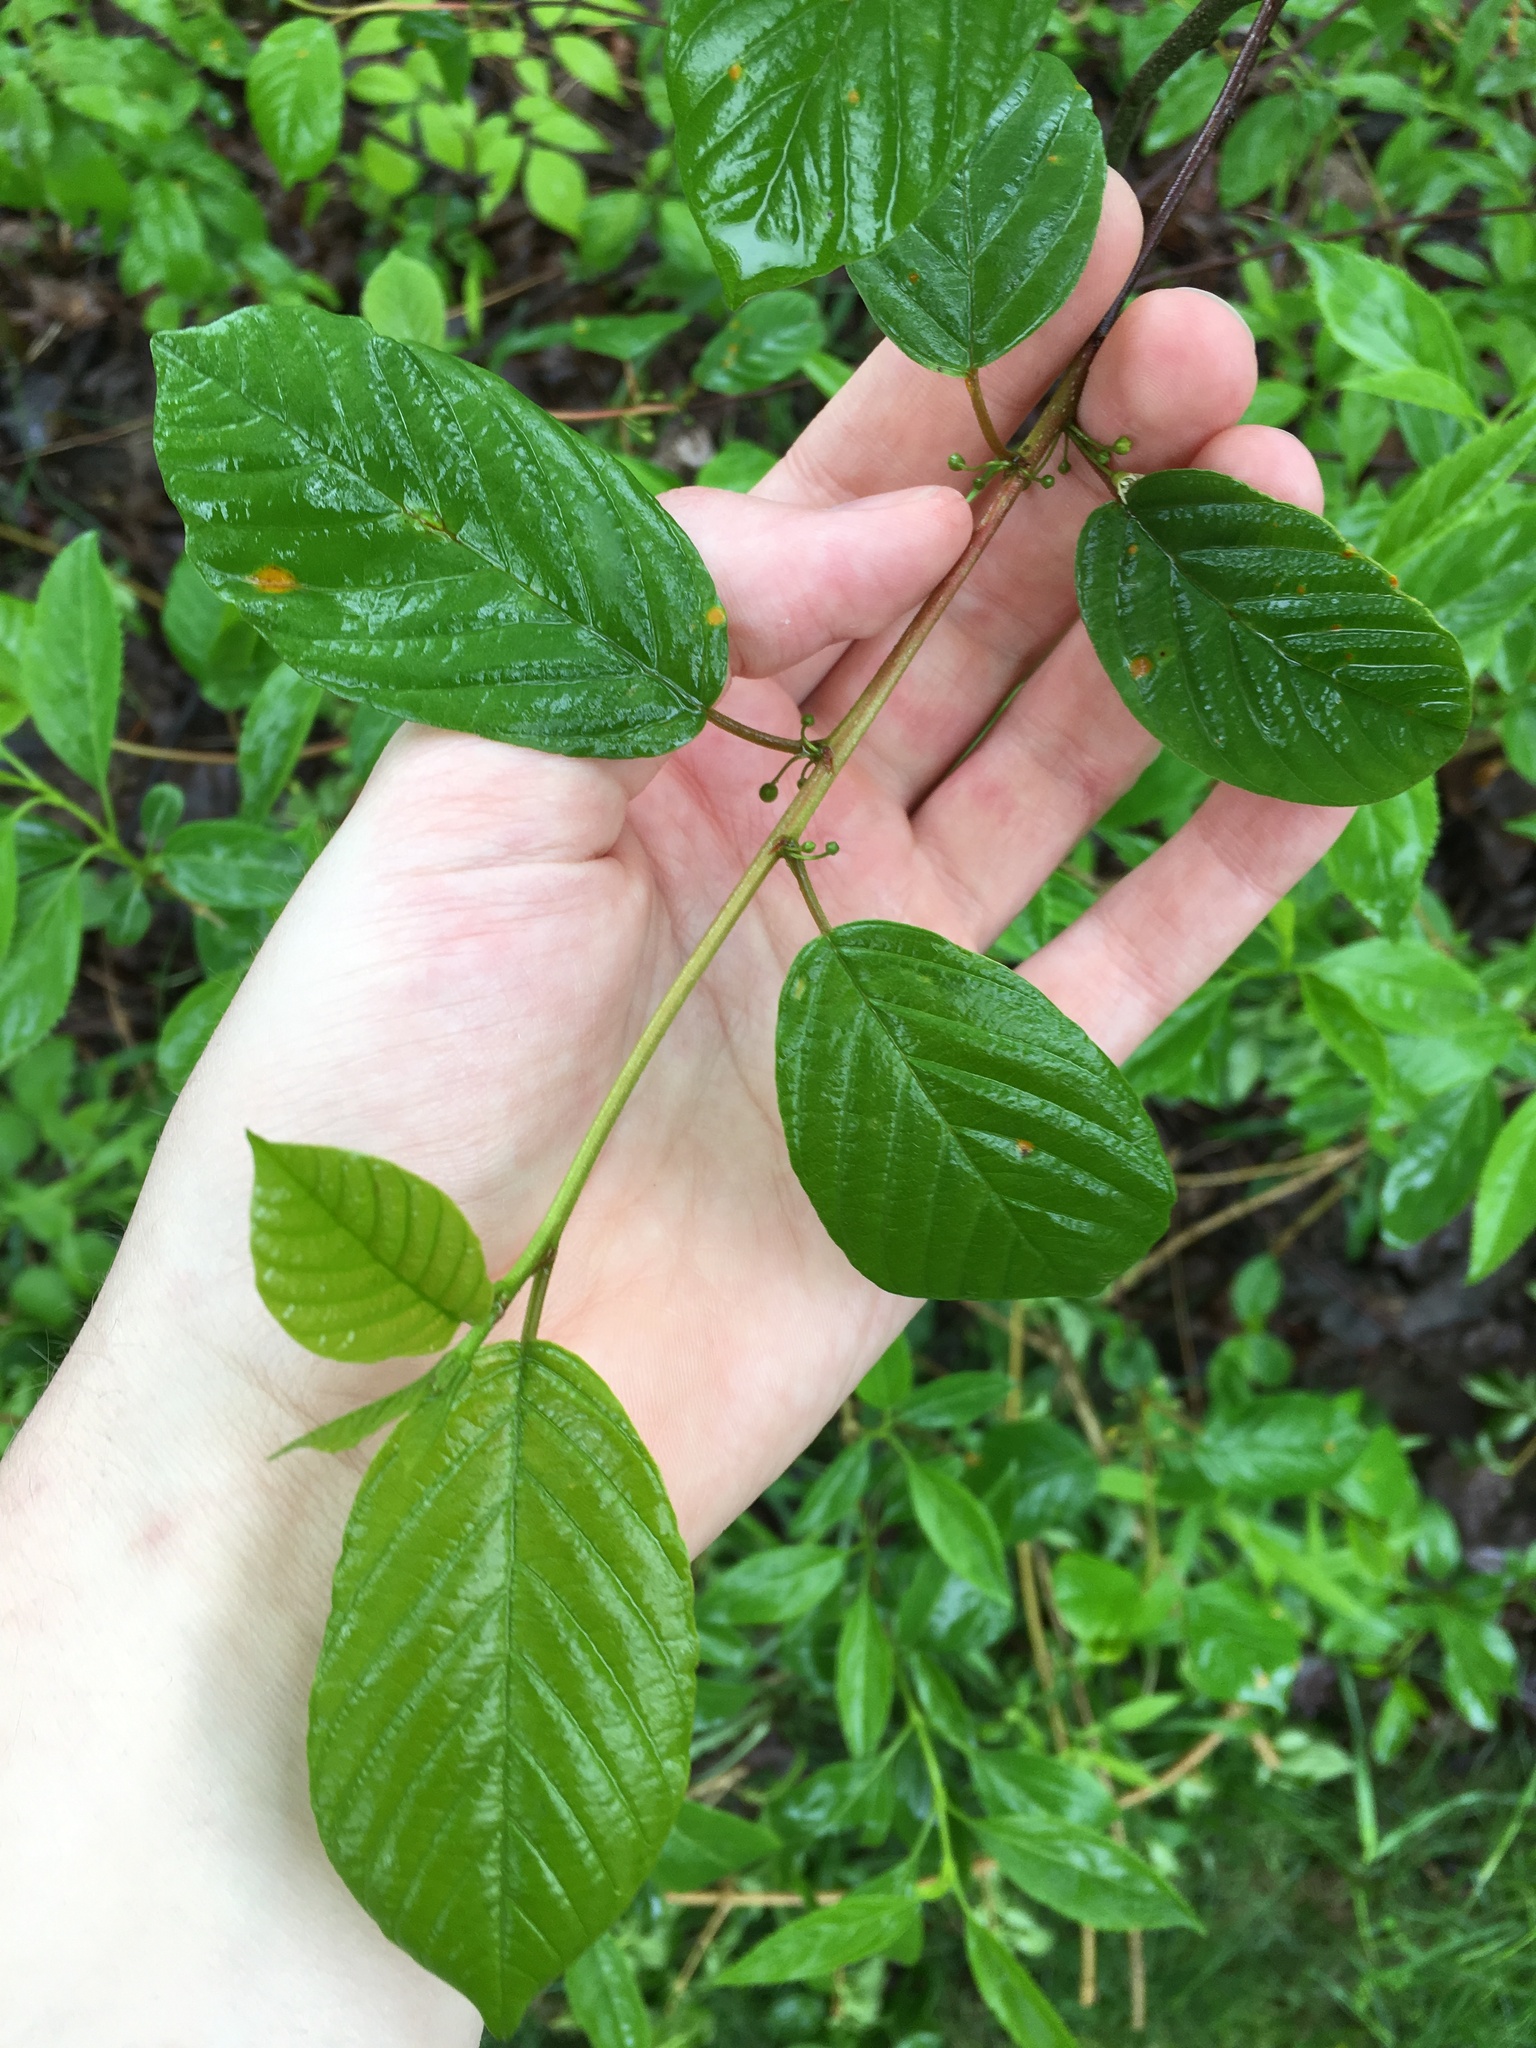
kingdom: Plantae
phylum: Tracheophyta
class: Magnoliopsida
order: Rosales
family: Rhamnaceae
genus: Frangula
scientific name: Frangula alnus
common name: Alder buckthorn
